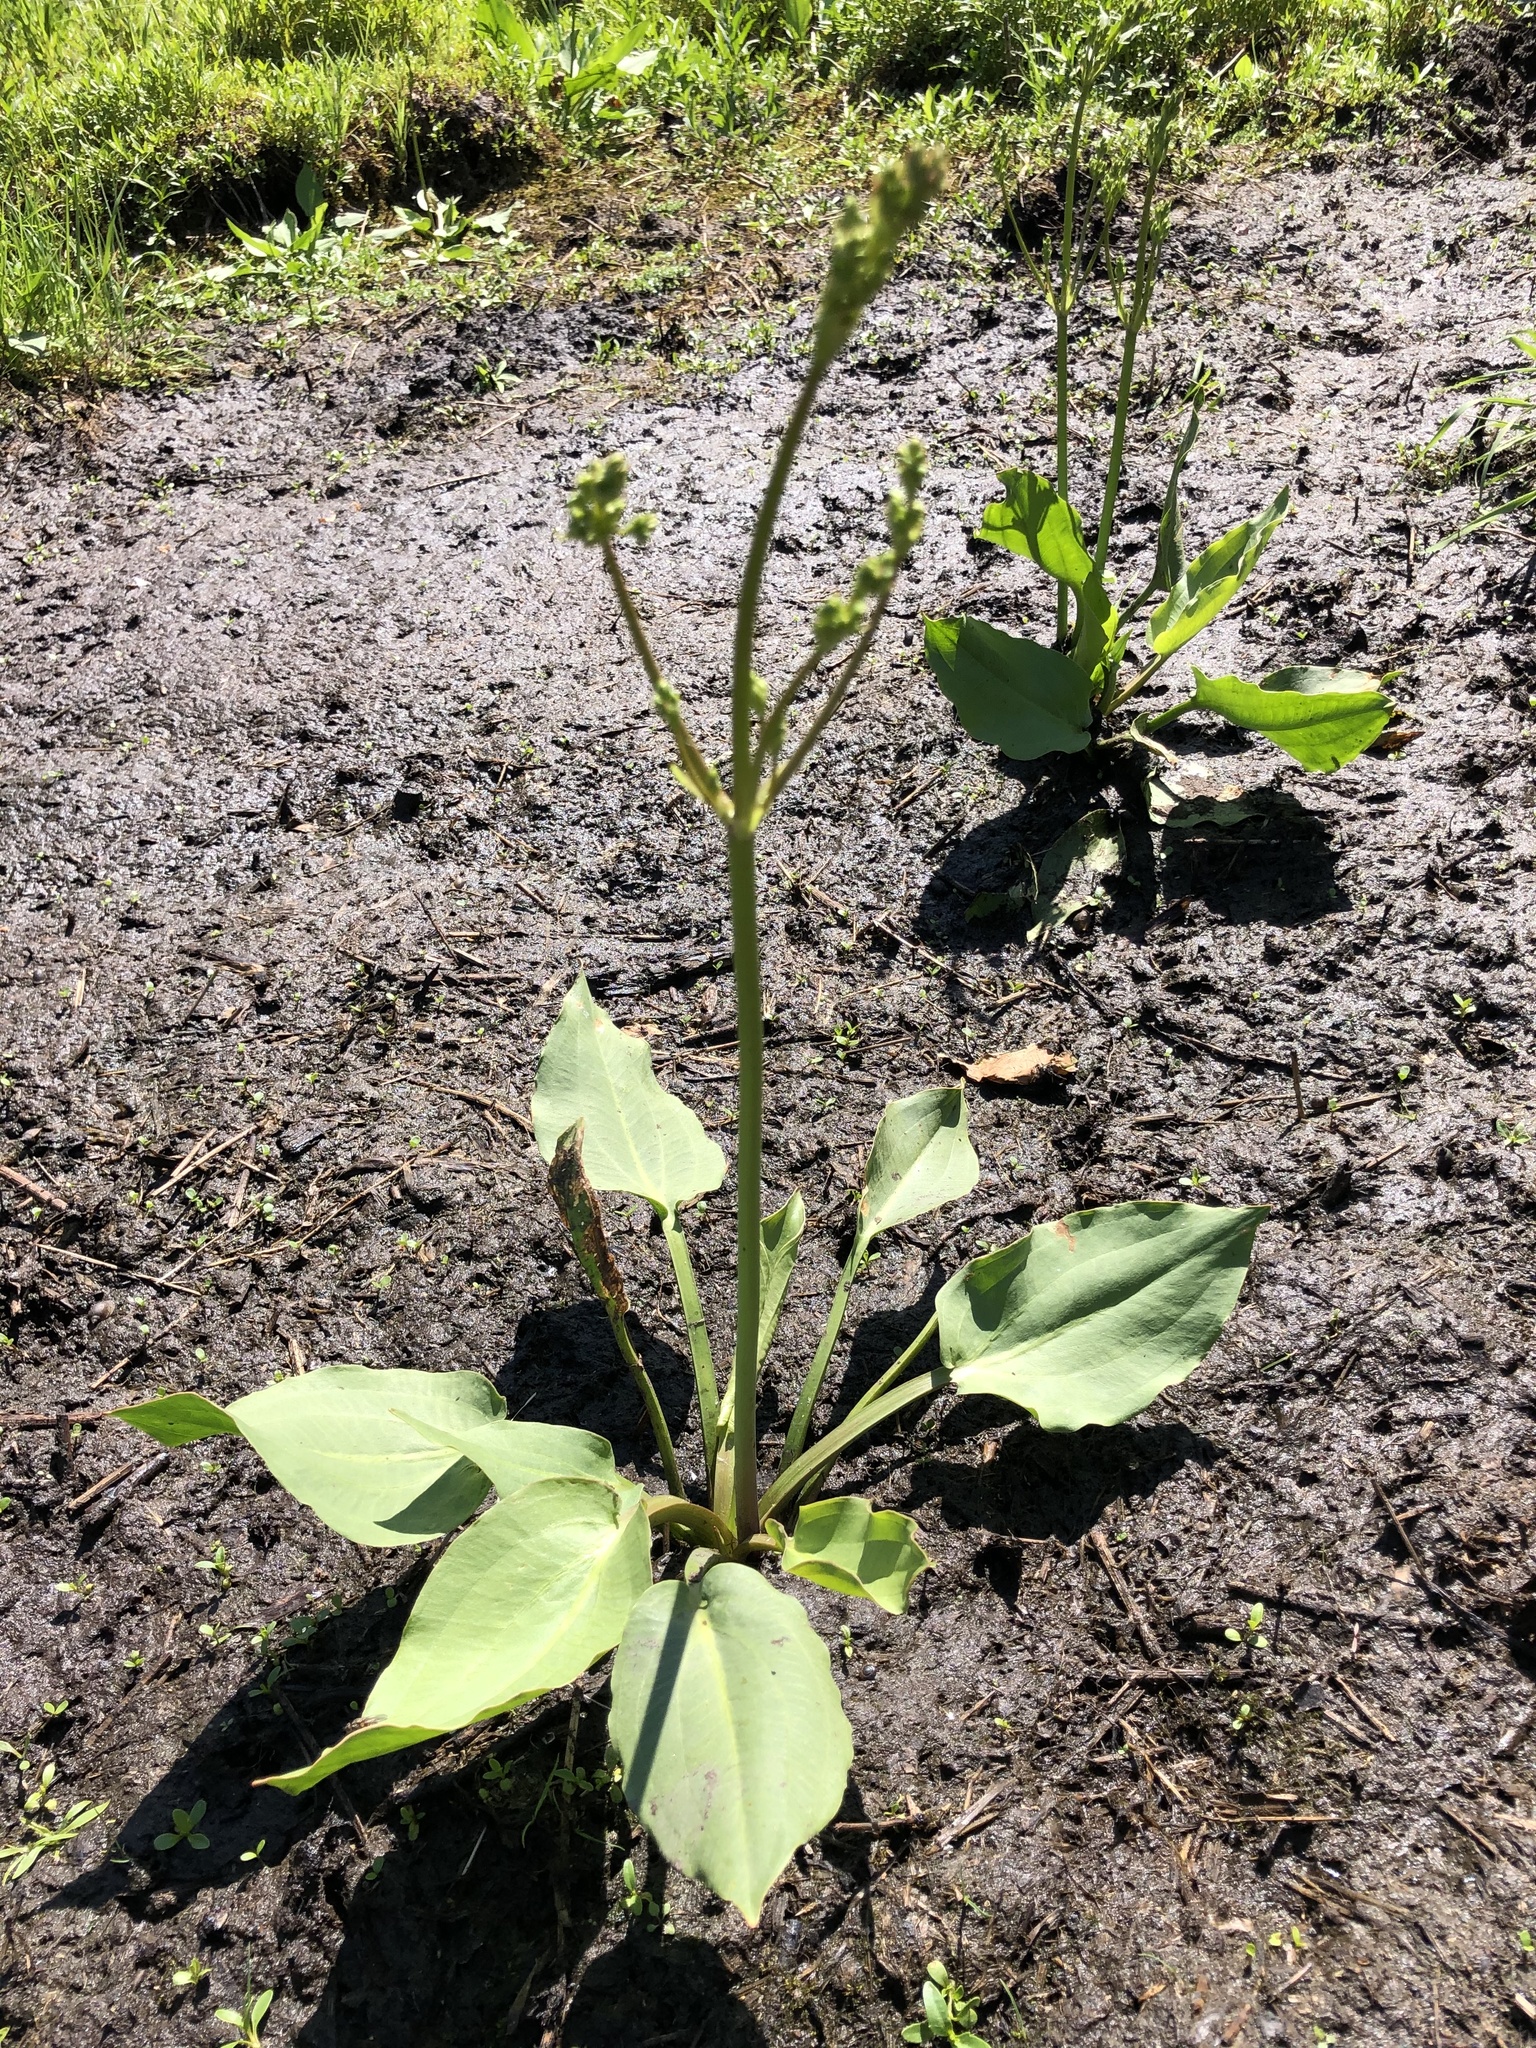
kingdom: Plantae
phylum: Tracheophyta
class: Liliopsida
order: Alismatales
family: Alismataceae
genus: Alisma
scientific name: Alisma plantago-aquatica
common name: Water-plantain
